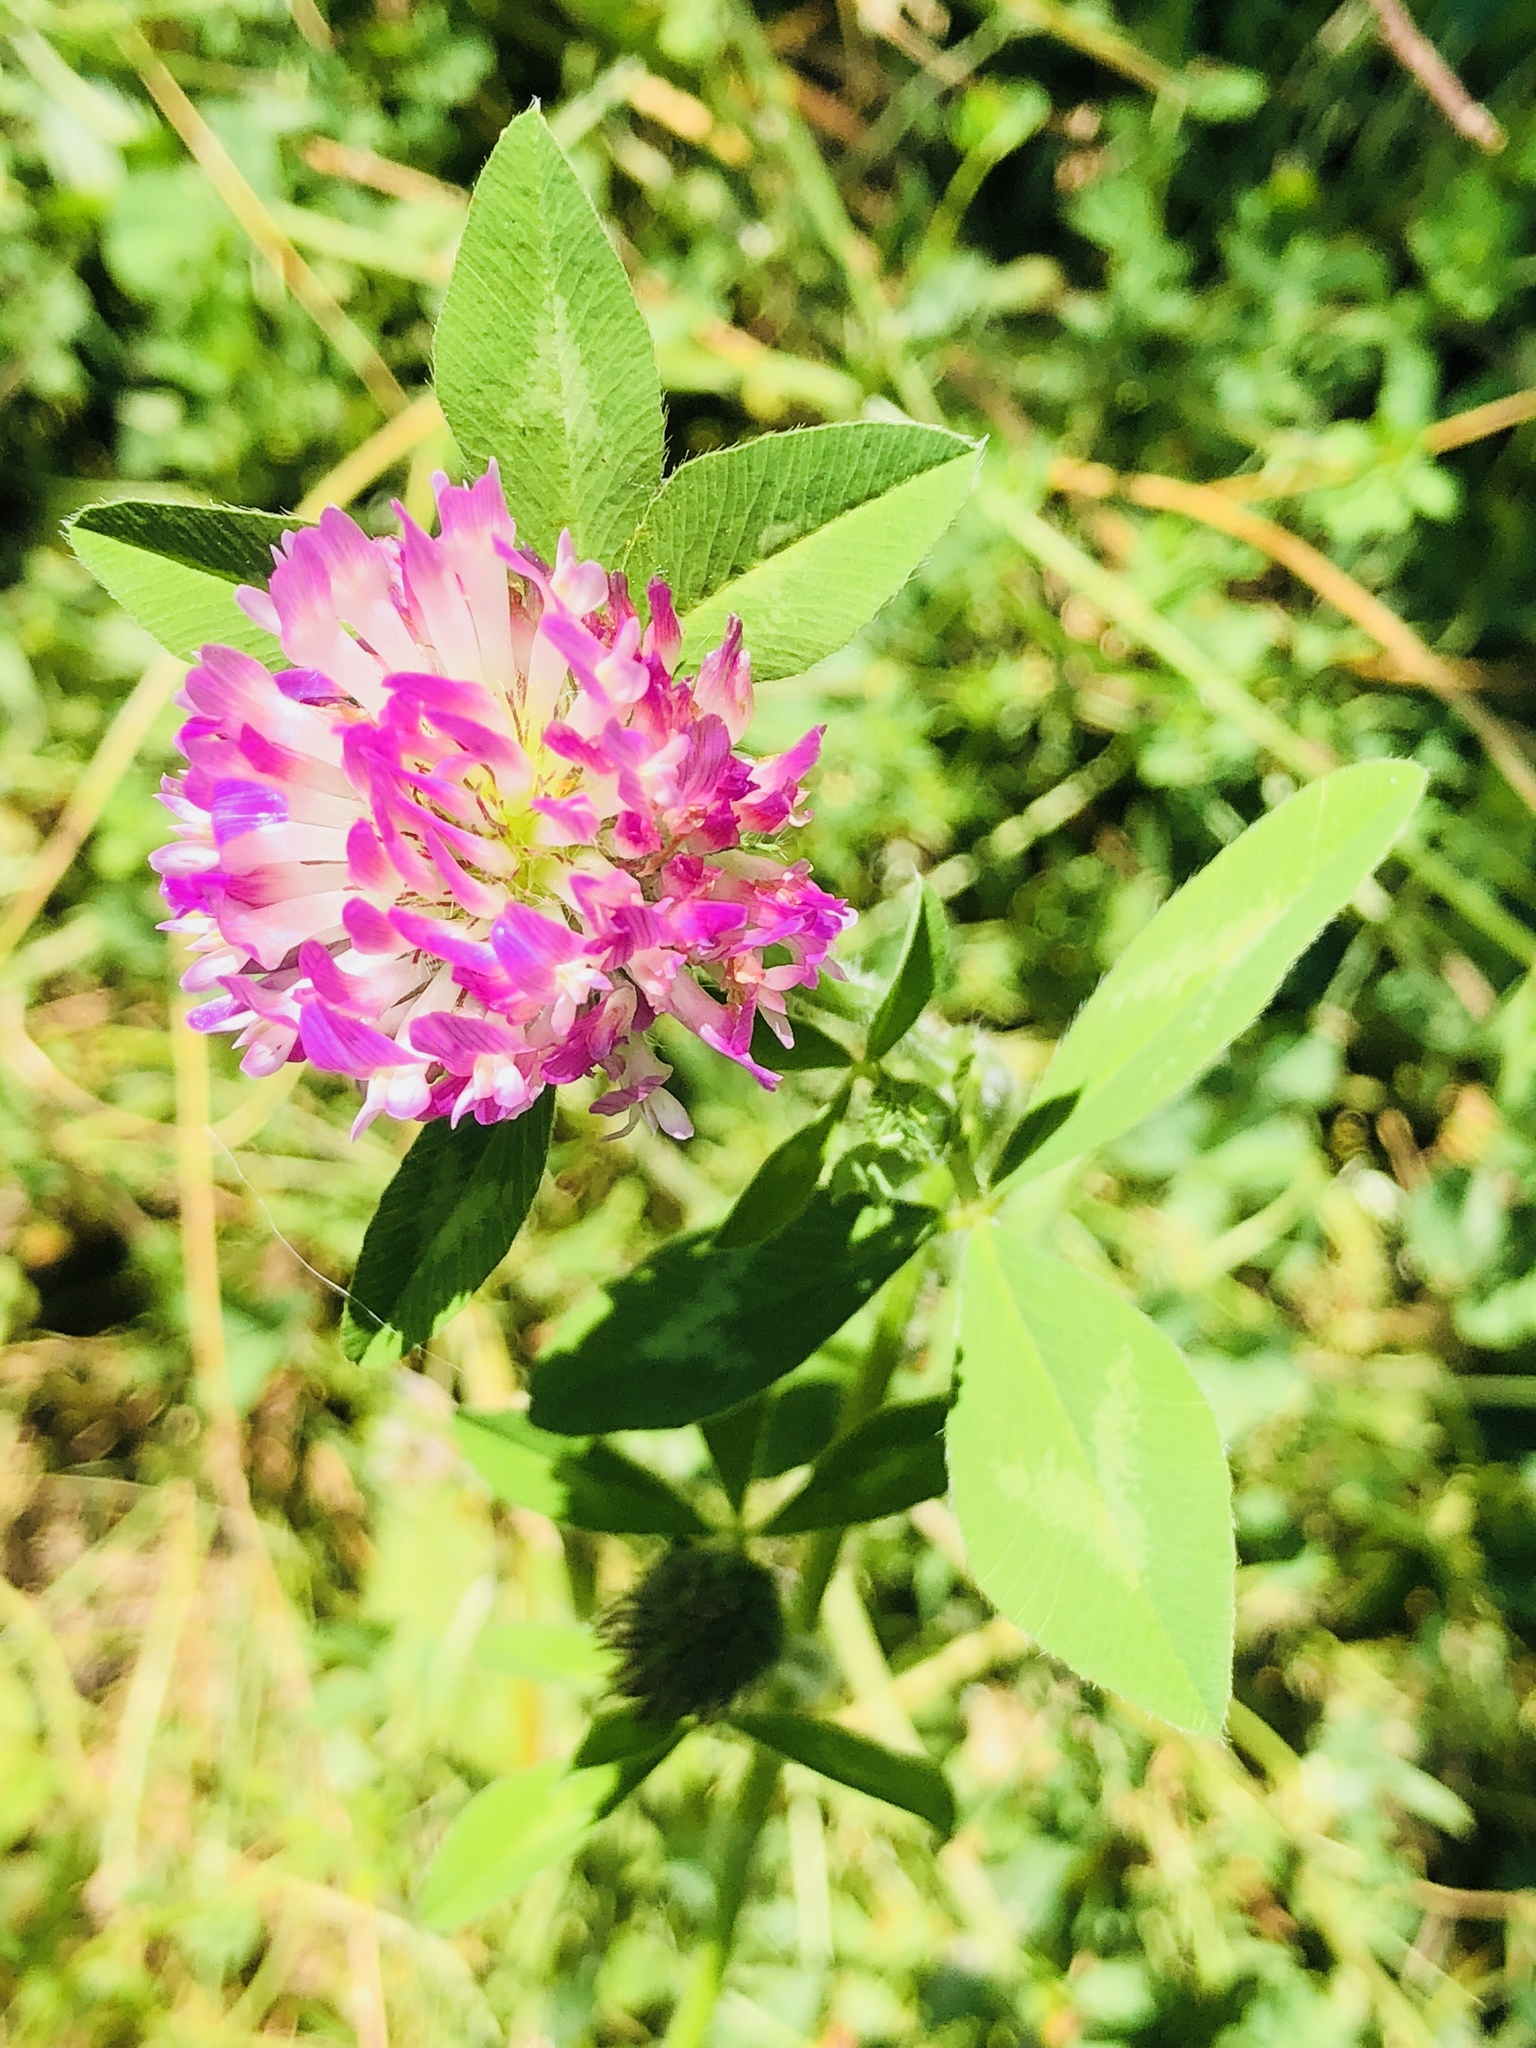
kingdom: Plantae
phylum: Tracheophyta
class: Magnoliopsida
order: Fabales
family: Fabaceae
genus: Trifolium
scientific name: Trifolium pratense
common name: Red clover
